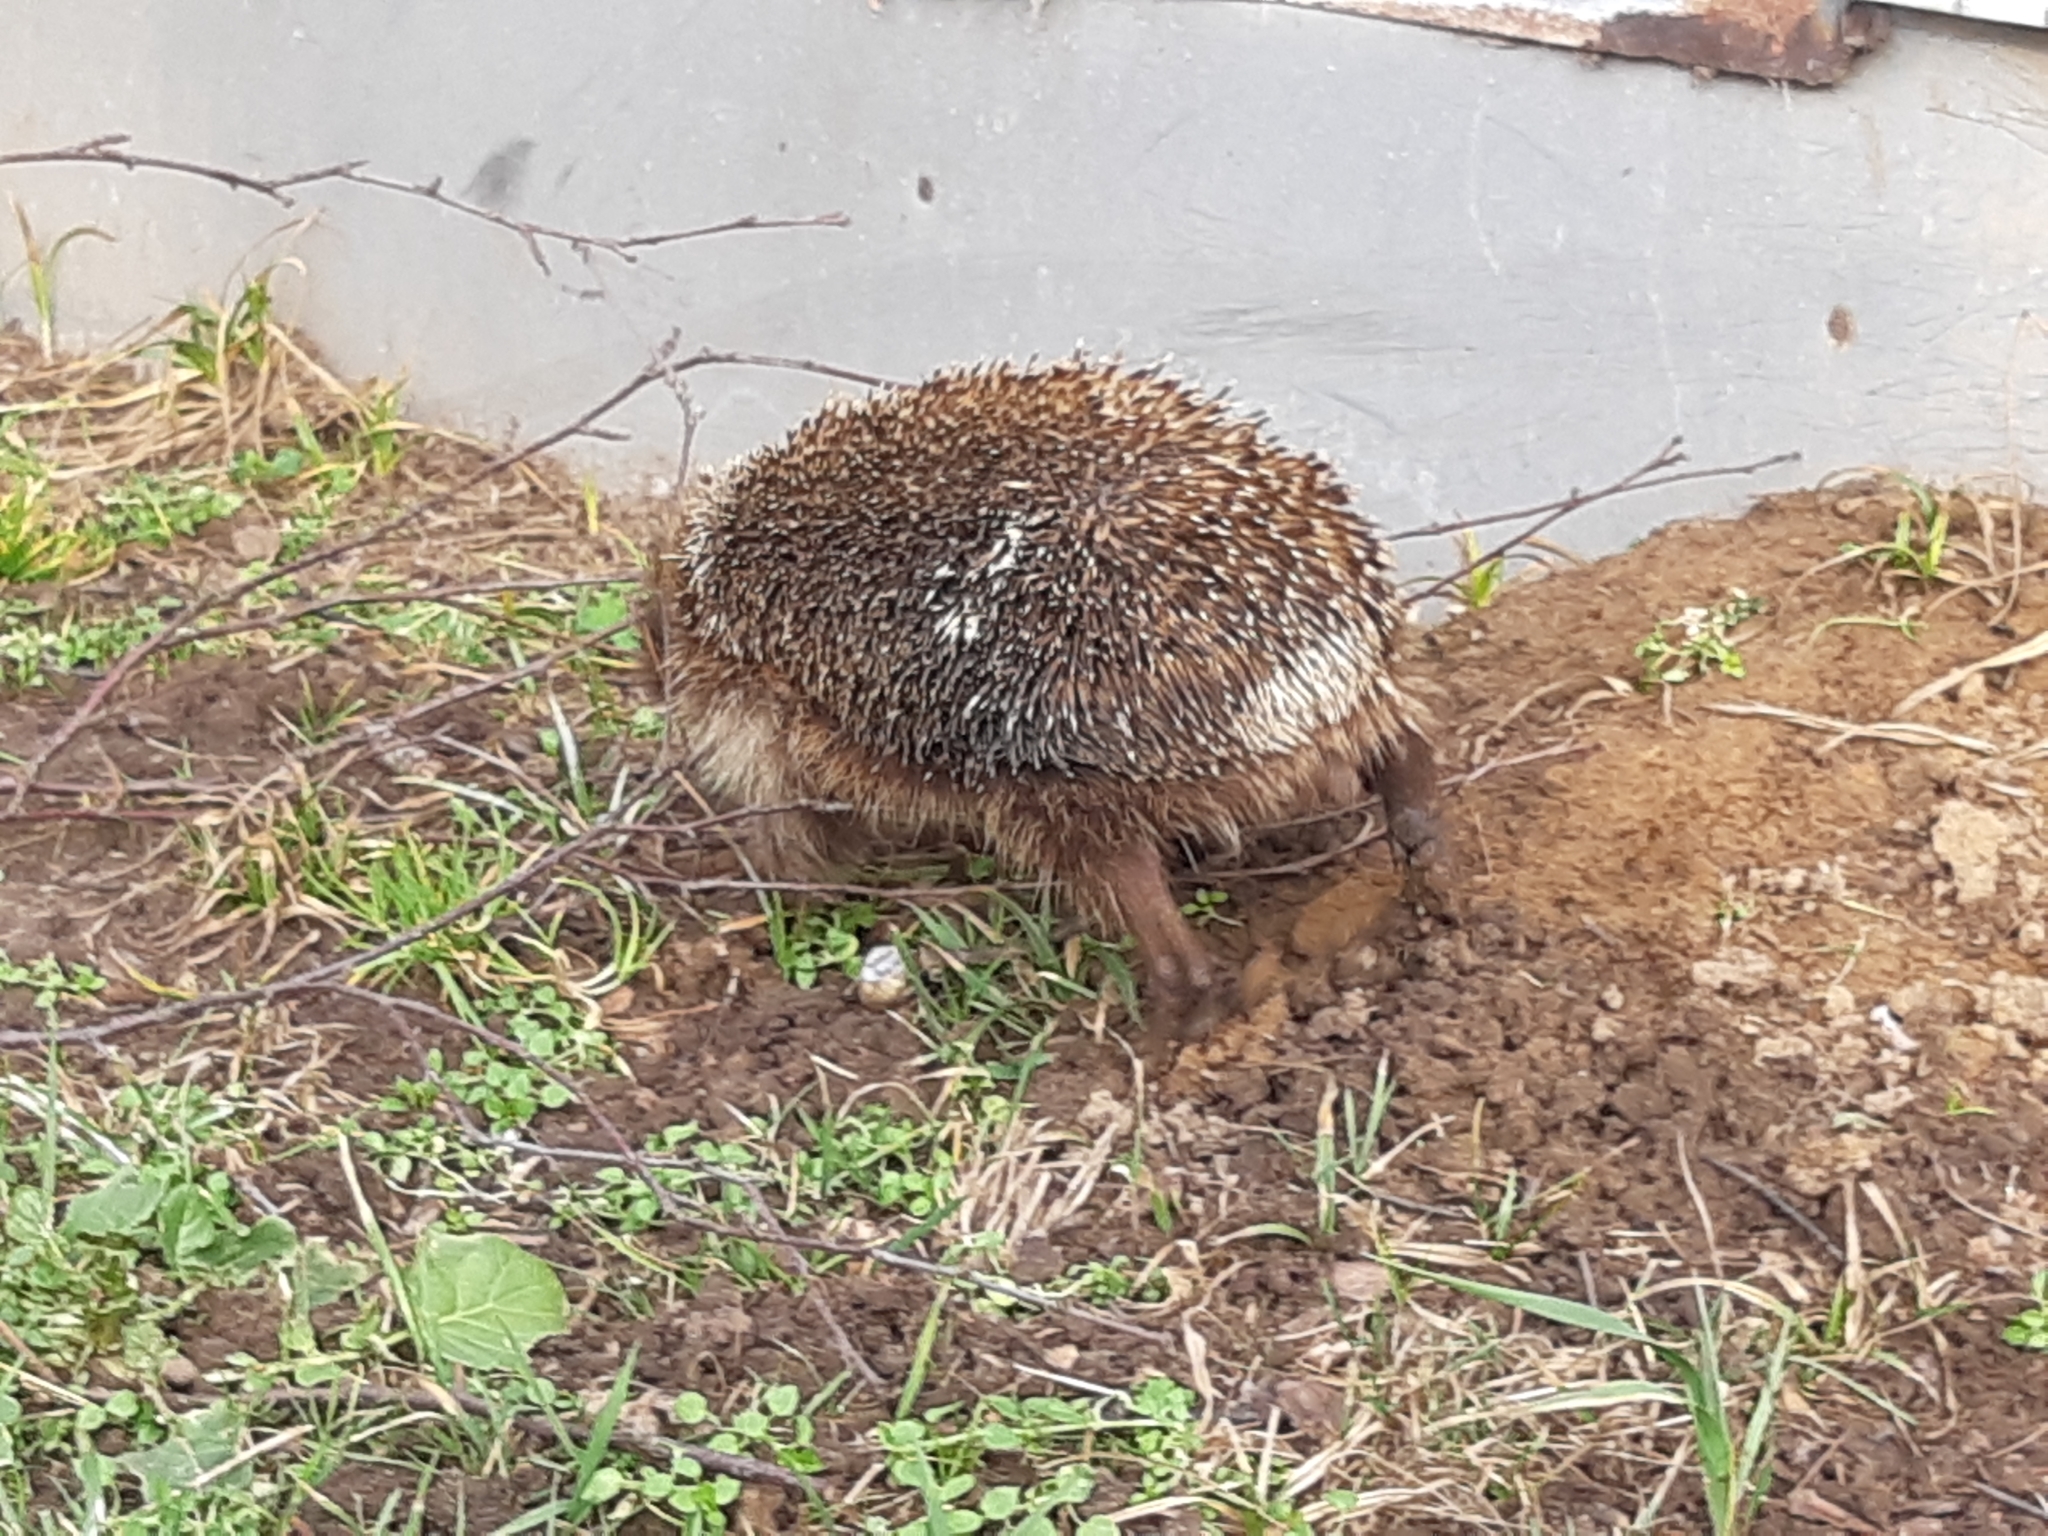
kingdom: Animalia
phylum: Chordata
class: Mammalia
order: Erinaceomorpha
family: Erinaceidae
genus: Erinaceus
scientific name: Erinaceus europaeus
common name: West european hedgehog
